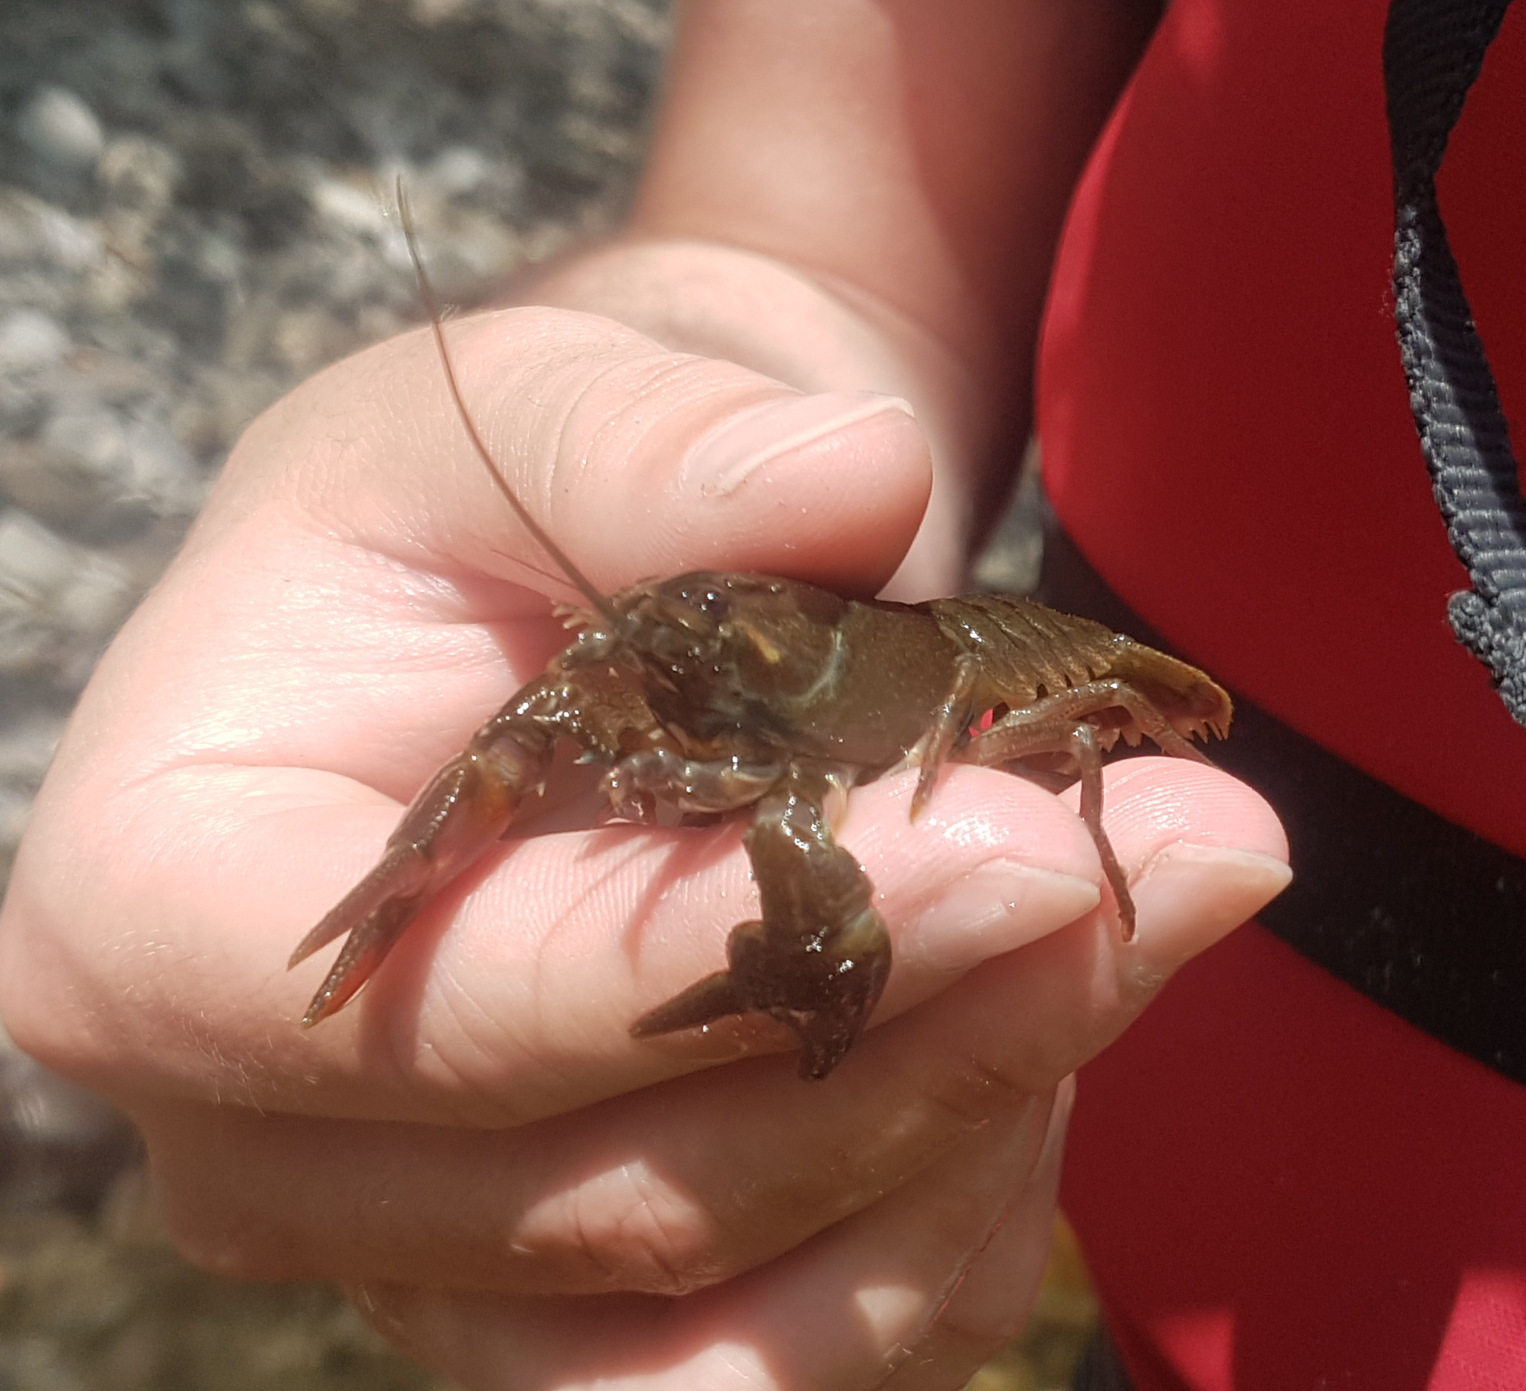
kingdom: Animalia
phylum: Arthropoda
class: Malacostraca
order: Decapoda
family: Astacidae
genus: Pacifastacus
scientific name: Pacifastacus leniusculus
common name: Signal crayfish
